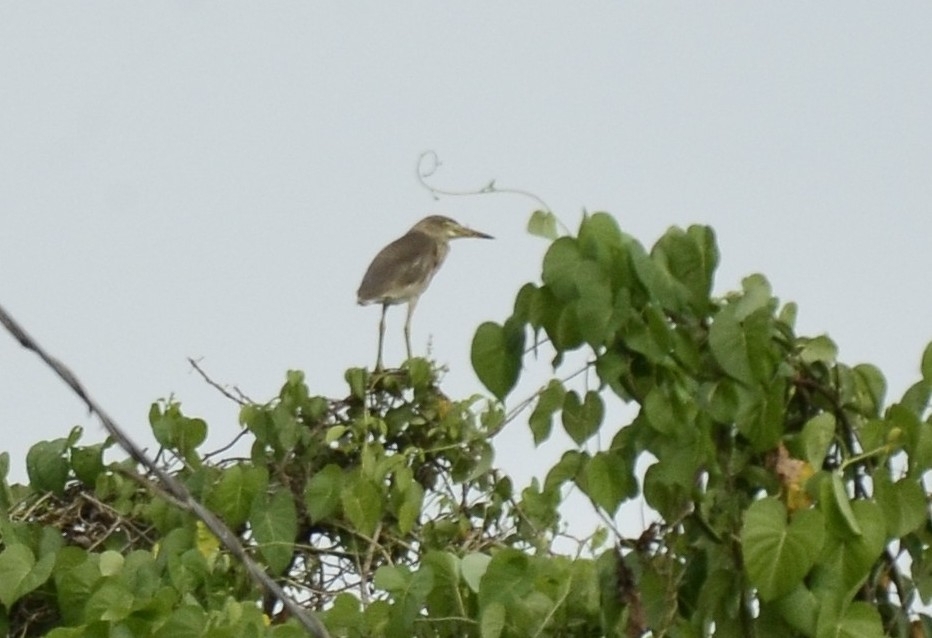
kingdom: Animalia
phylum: Chordata
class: Aves
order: Pelecaniformes
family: Ardeidae
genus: Ardeola
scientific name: Ardeola grayii
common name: Indian pond heron
